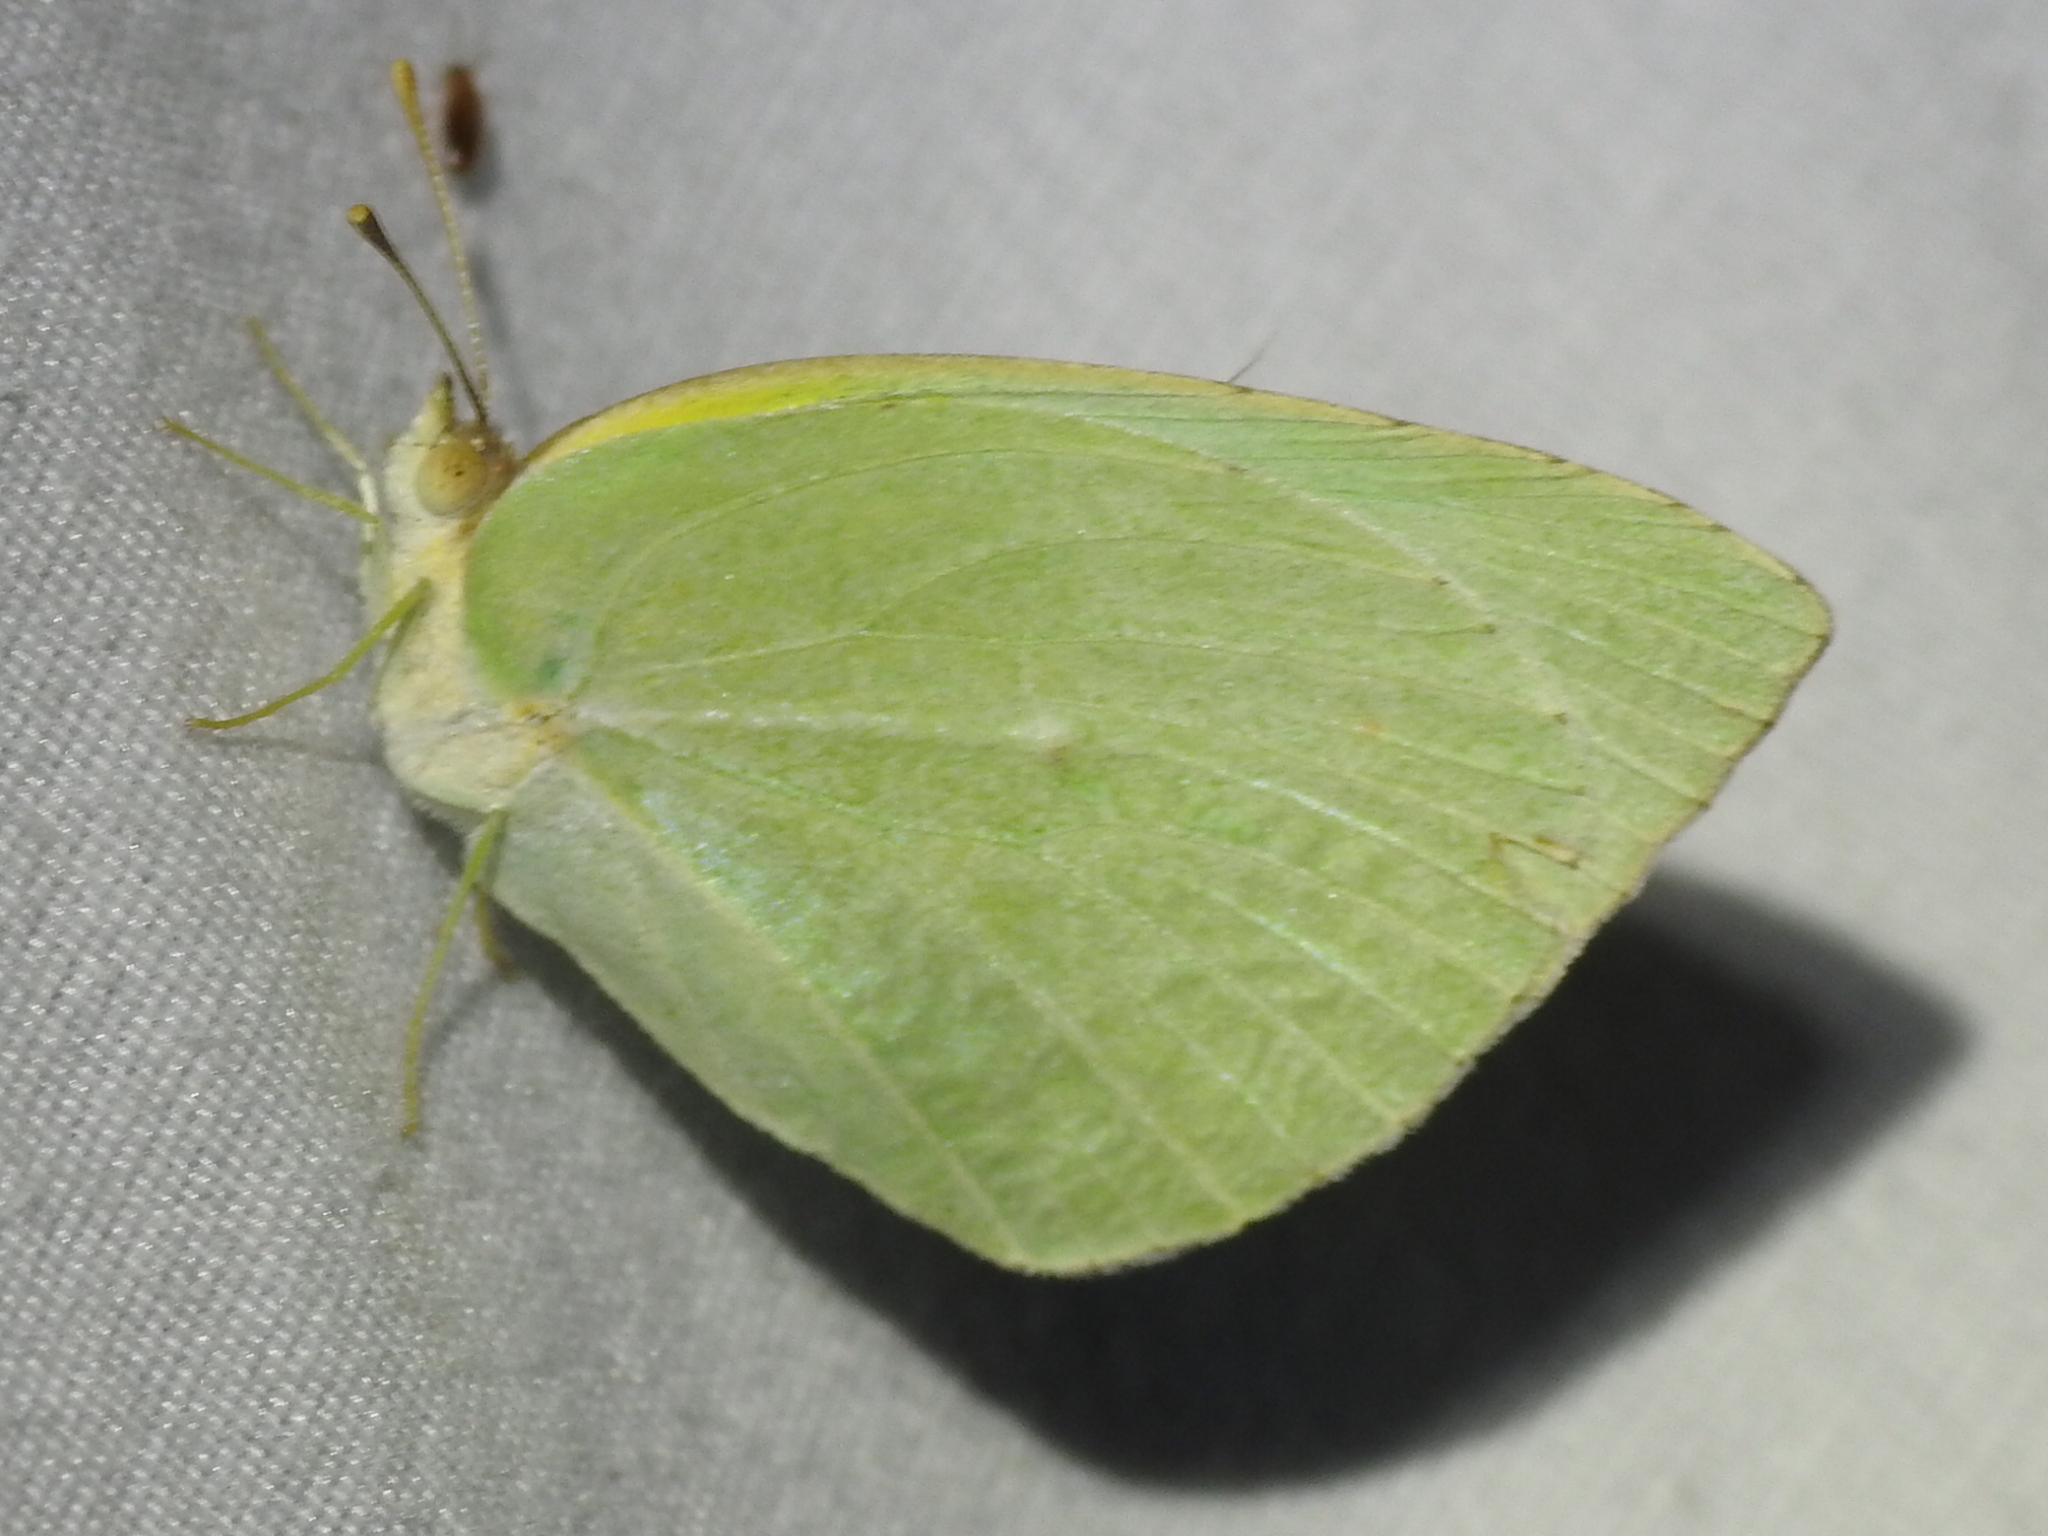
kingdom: Animalia
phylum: Arthropoda
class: Insecta
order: Lepidoptera
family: Pieridae
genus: Kricogonia
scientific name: Kricogonia lyside
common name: Guayacan sulphur,
